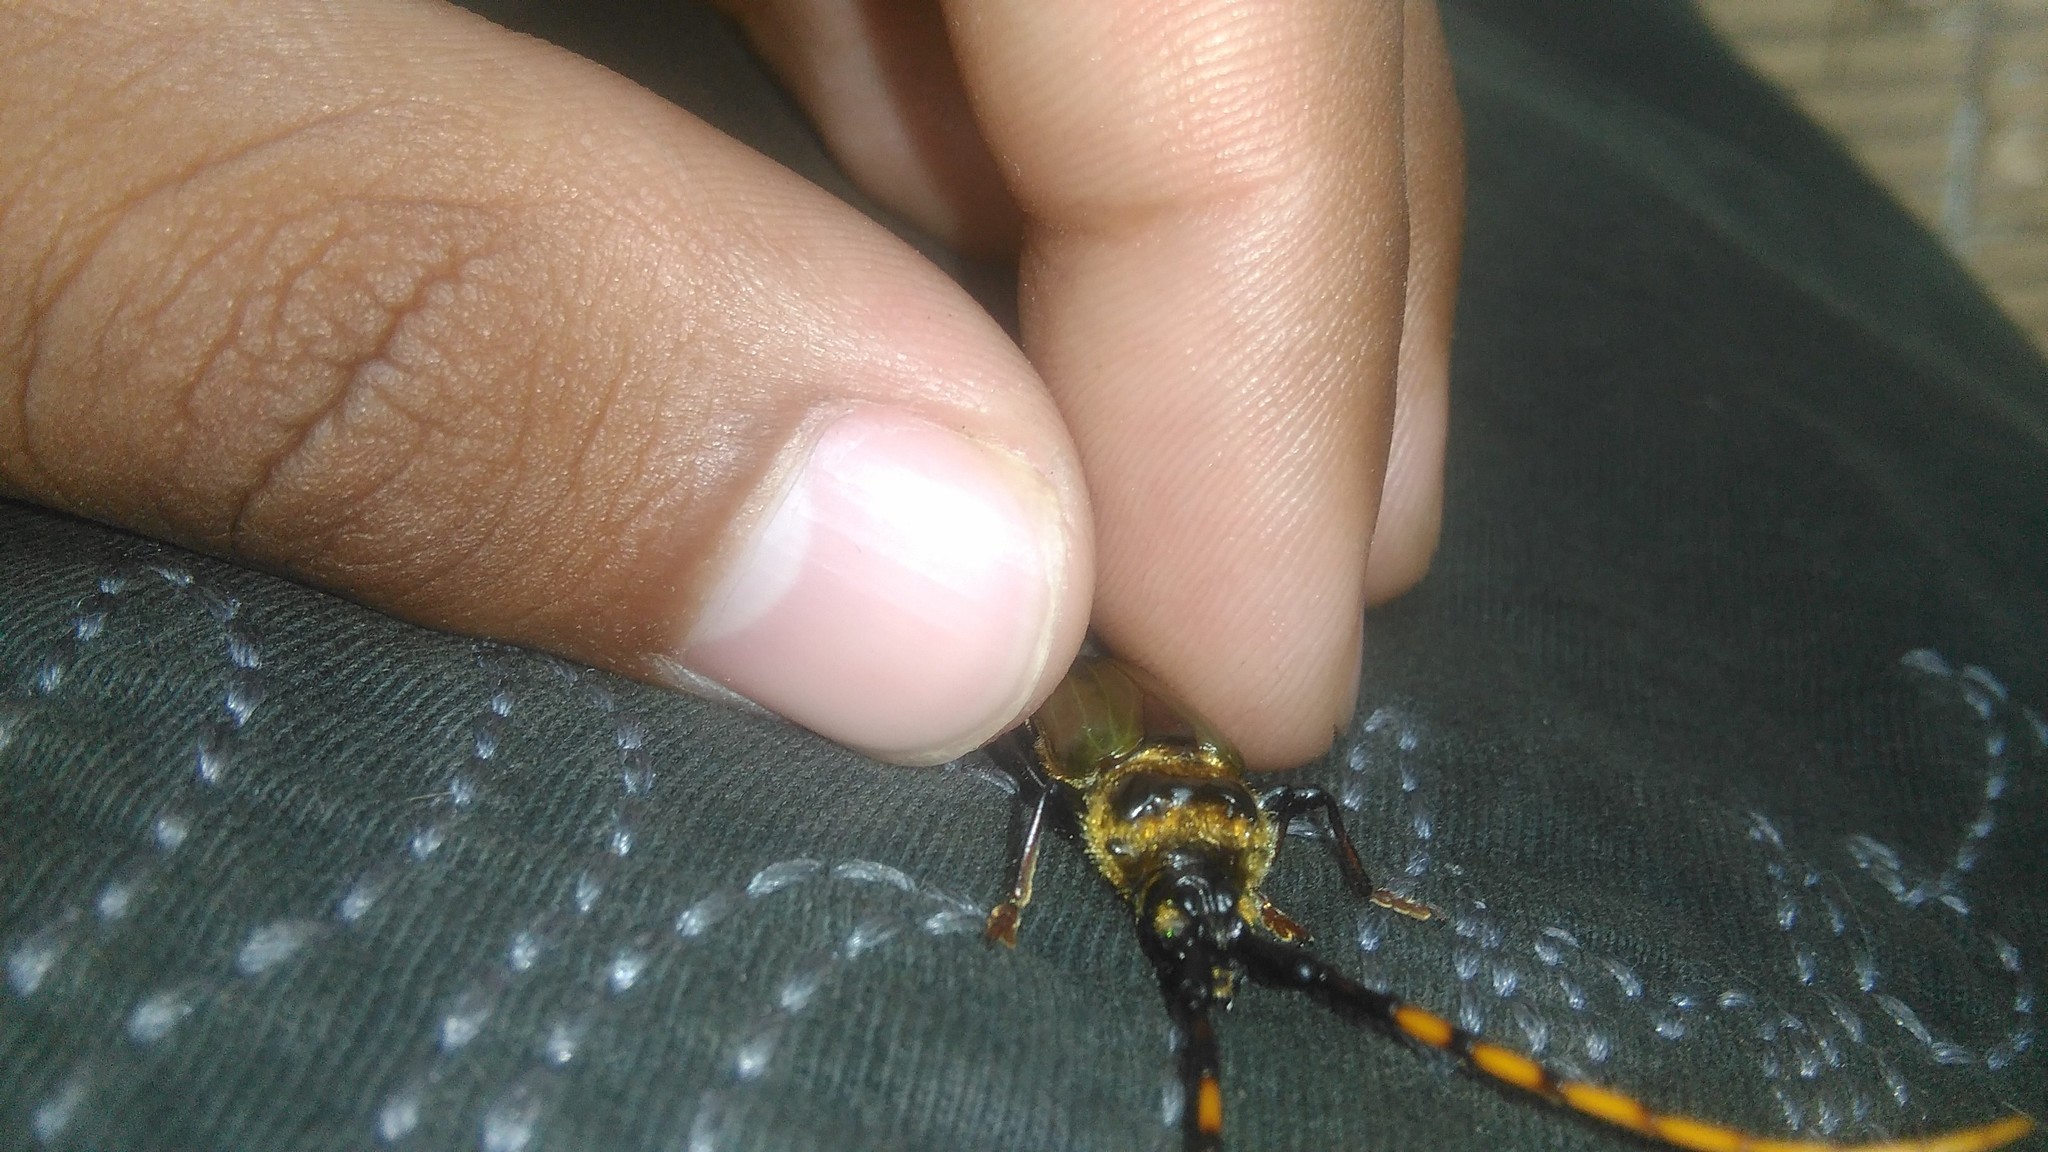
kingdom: Animalia
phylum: Arthropoda
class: Insecta
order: Coleoptera
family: Cerambycidae
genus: Retrachydes
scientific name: Retrachydes thoracicus
